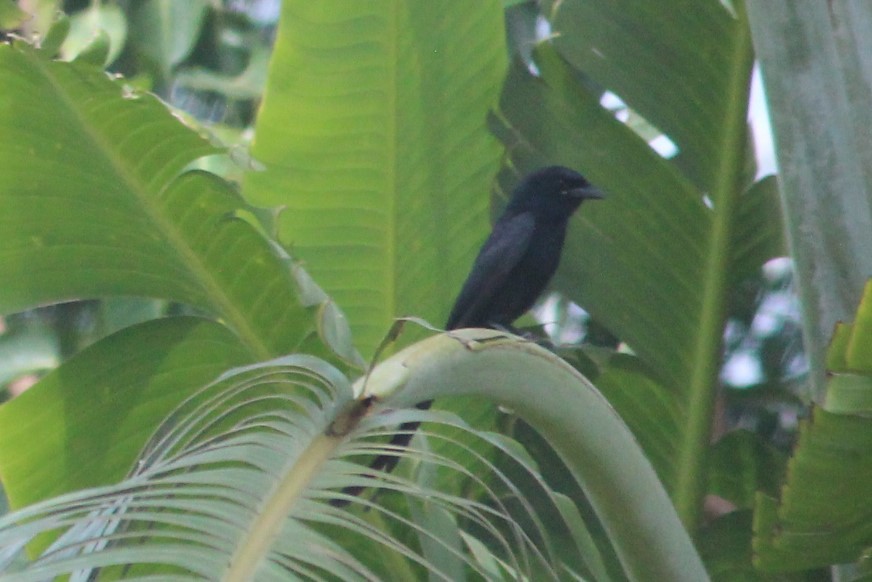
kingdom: Animalia
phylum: Chordata
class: Aves
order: Passeriformes
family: Dicruridae
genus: Dicrurus
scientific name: Dicrurus macrocercus
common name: Black drongo
